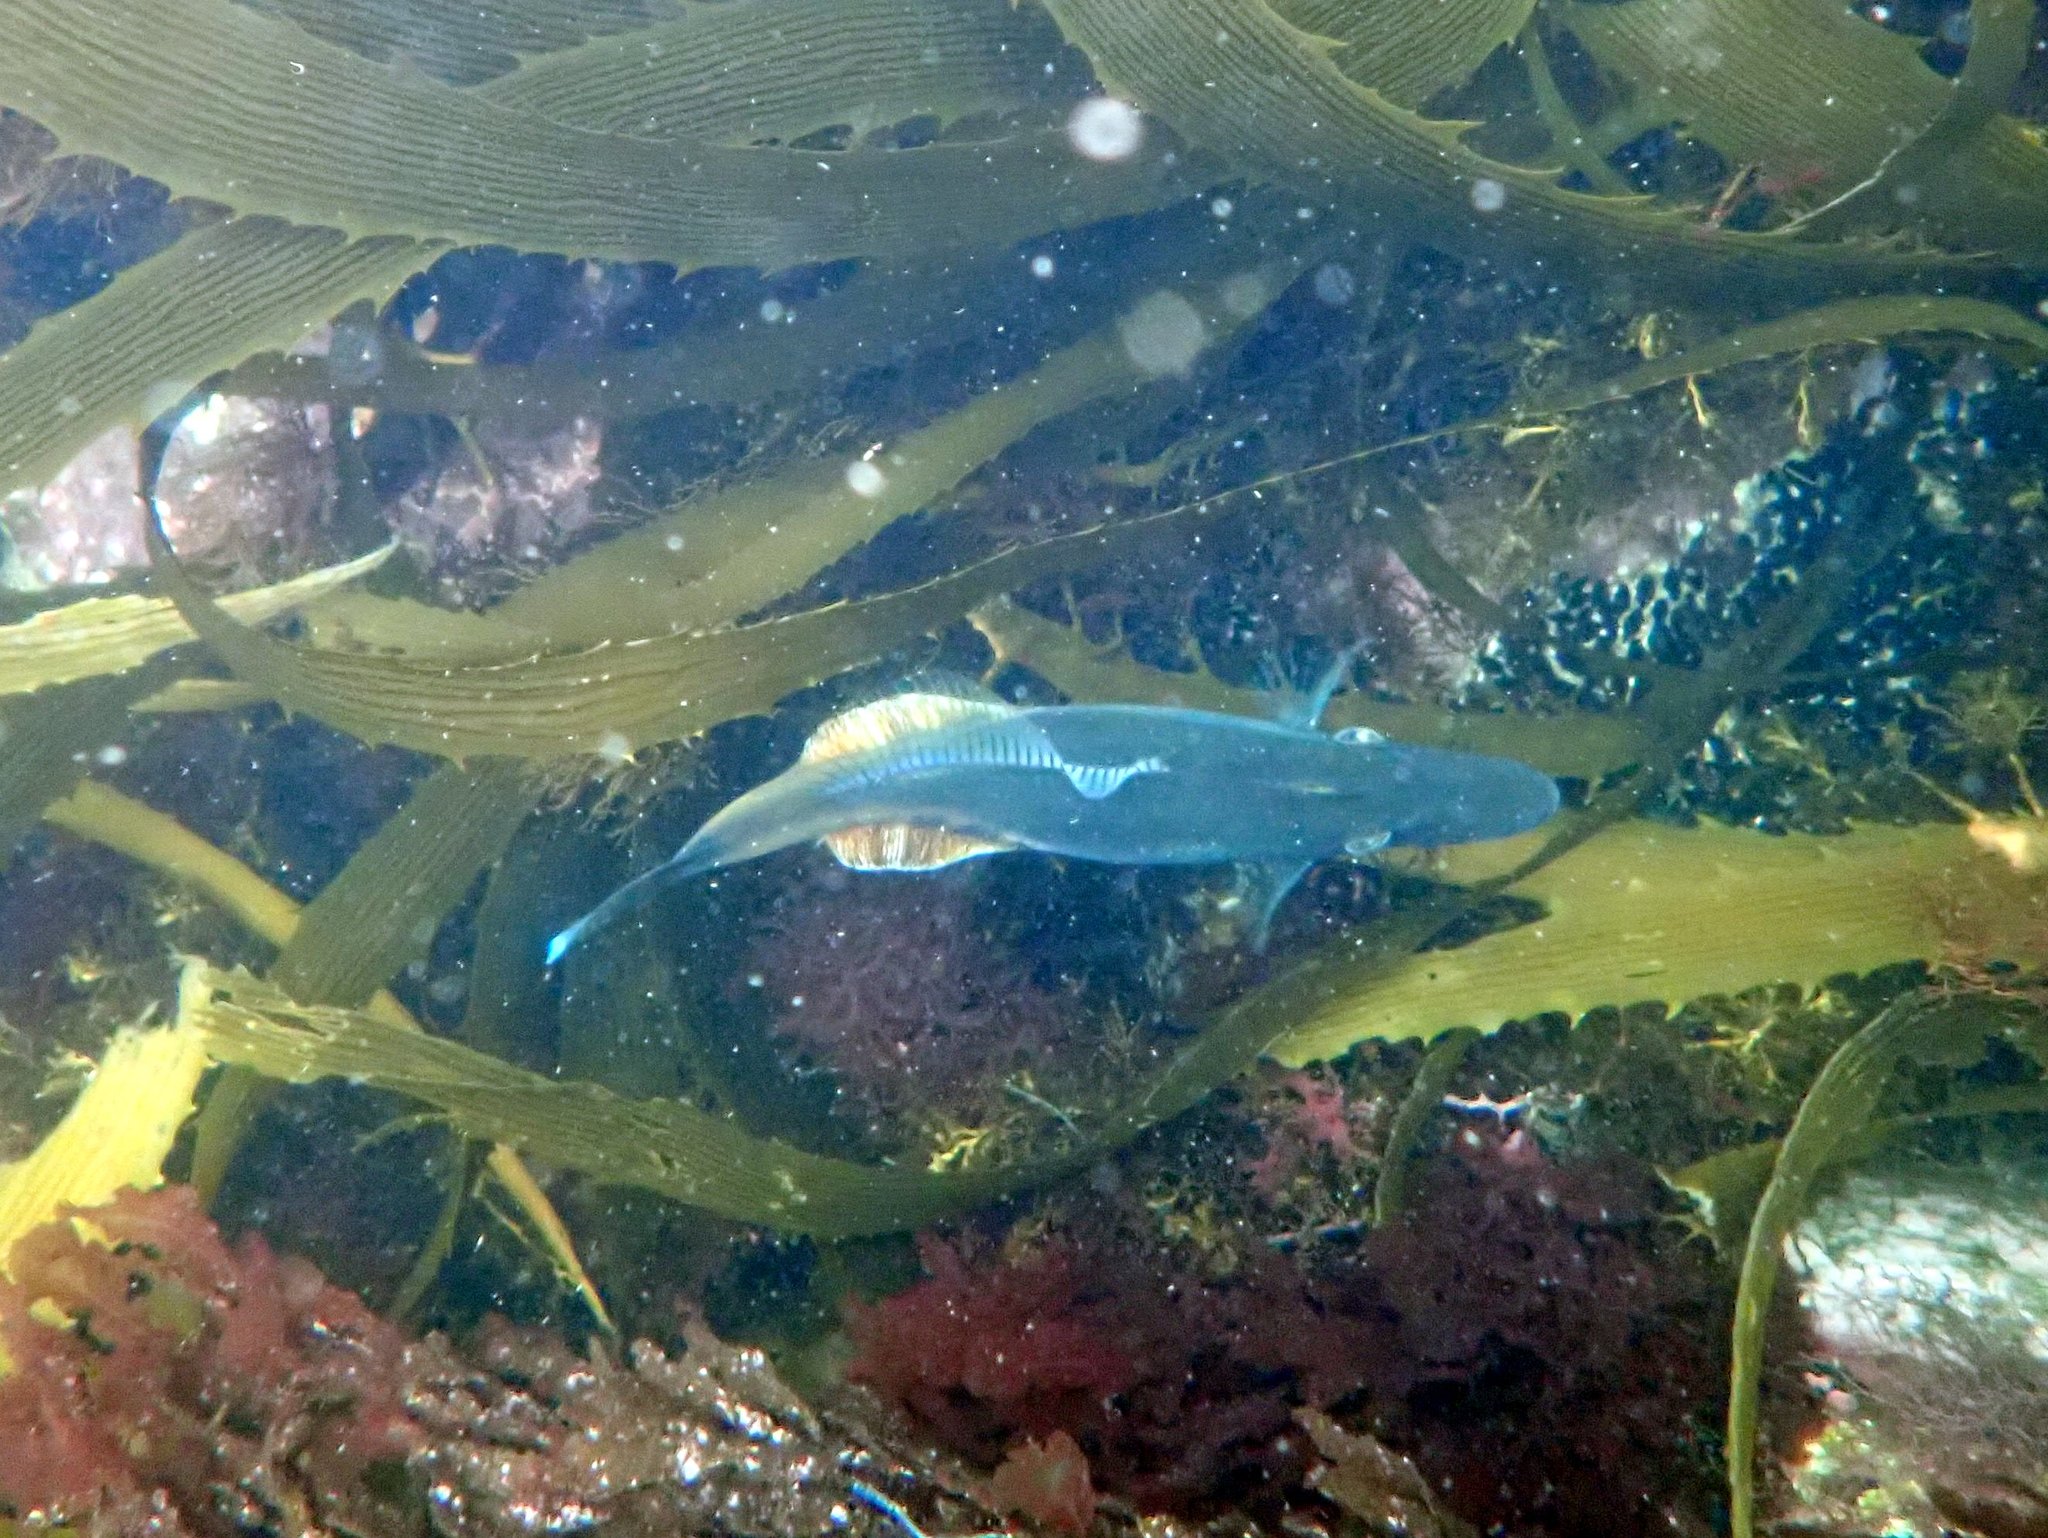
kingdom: Animalia
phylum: Chordata
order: Tetraodontiformes
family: Monacanthidae
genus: Acanthaluteres
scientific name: Acanthaluteres vittiger
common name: Brown leatherjacket
